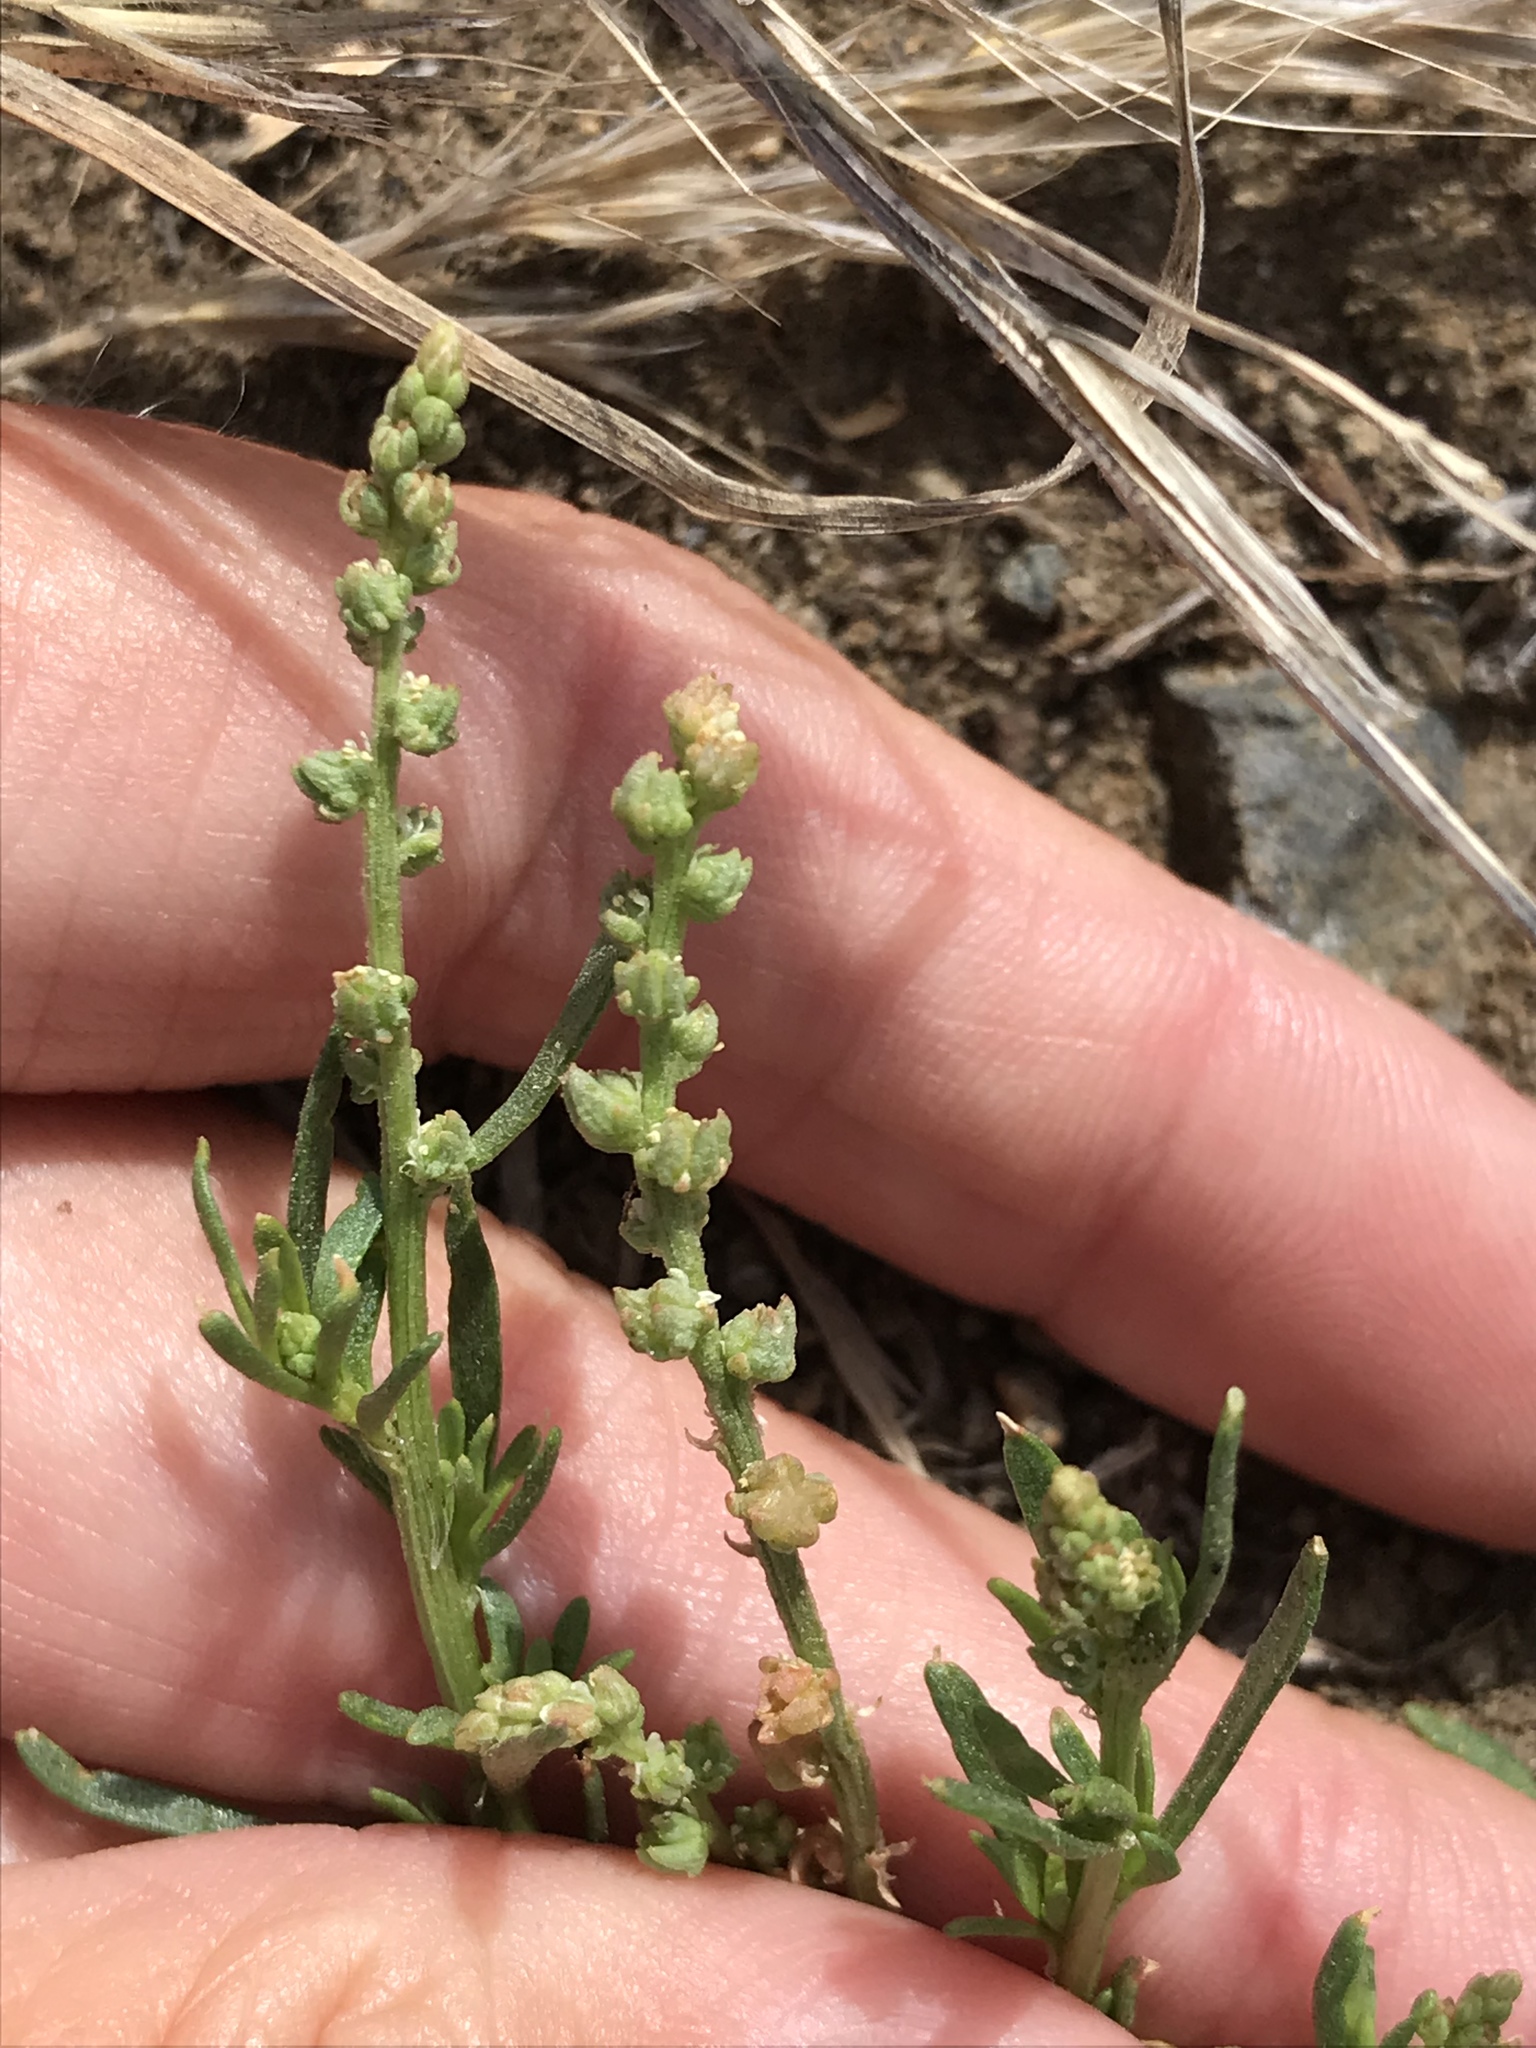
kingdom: Plantae
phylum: Tracheophyta
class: Magnoliopsida
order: Brassicales
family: Resedaceae
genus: Oligomeris
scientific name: Oligomeris linifolia
